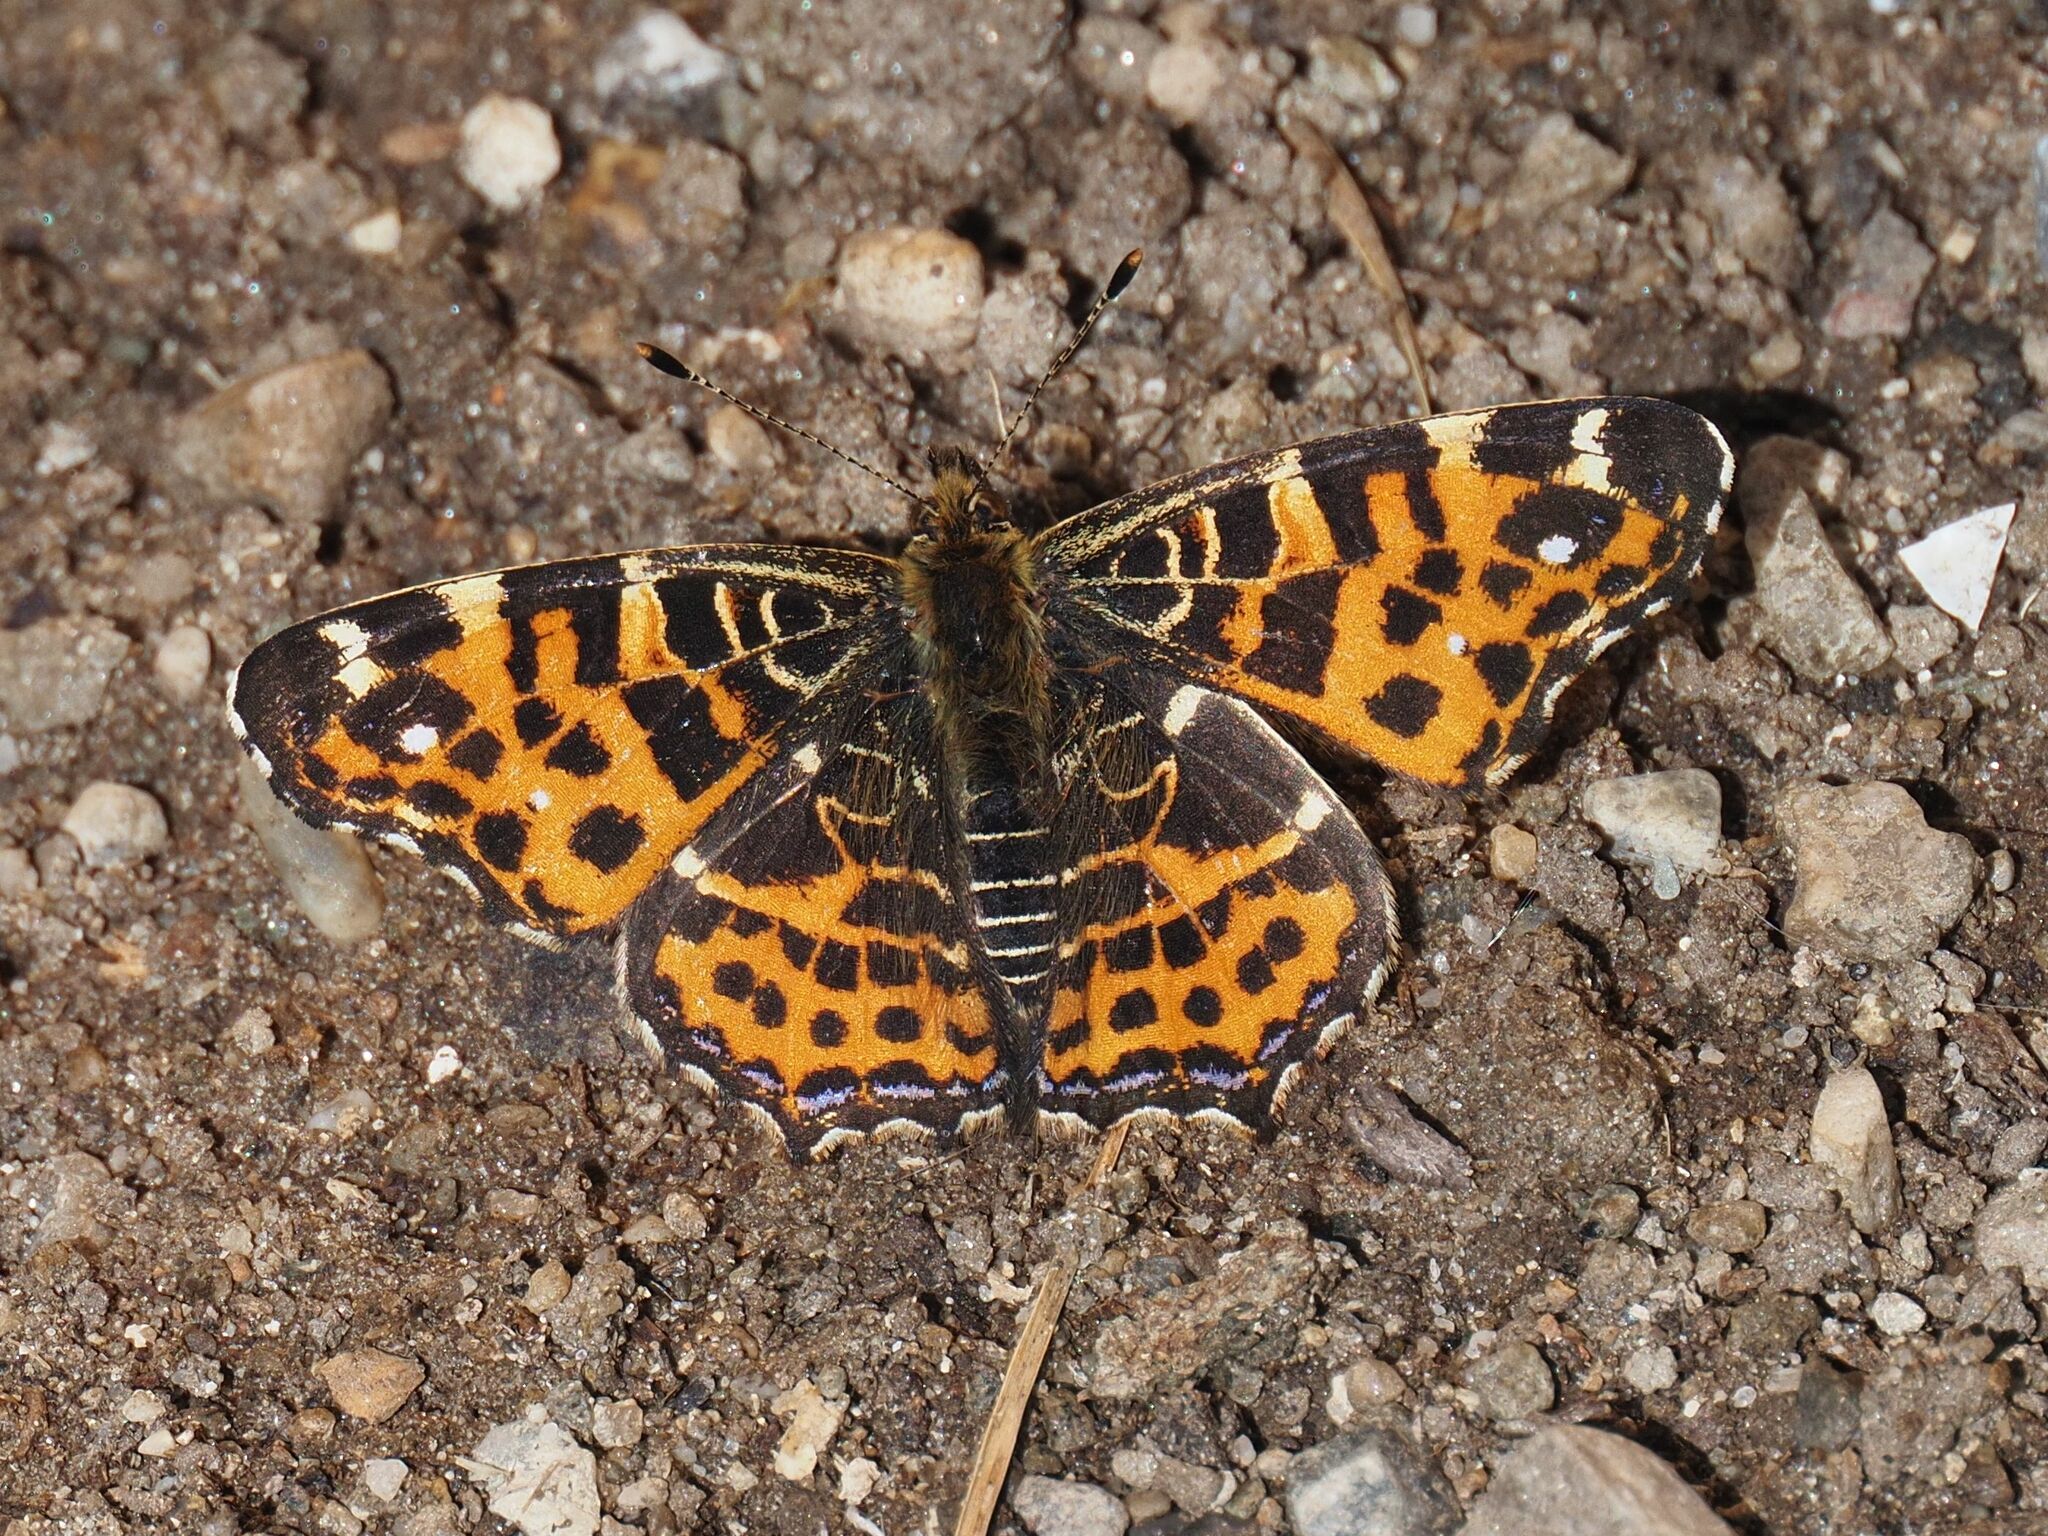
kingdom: Animalia
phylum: Arthropoda
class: Insecta
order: Lepidoptera
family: Nymphalidae
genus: Araschnia
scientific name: Araschnia levana
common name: Map butterfly
